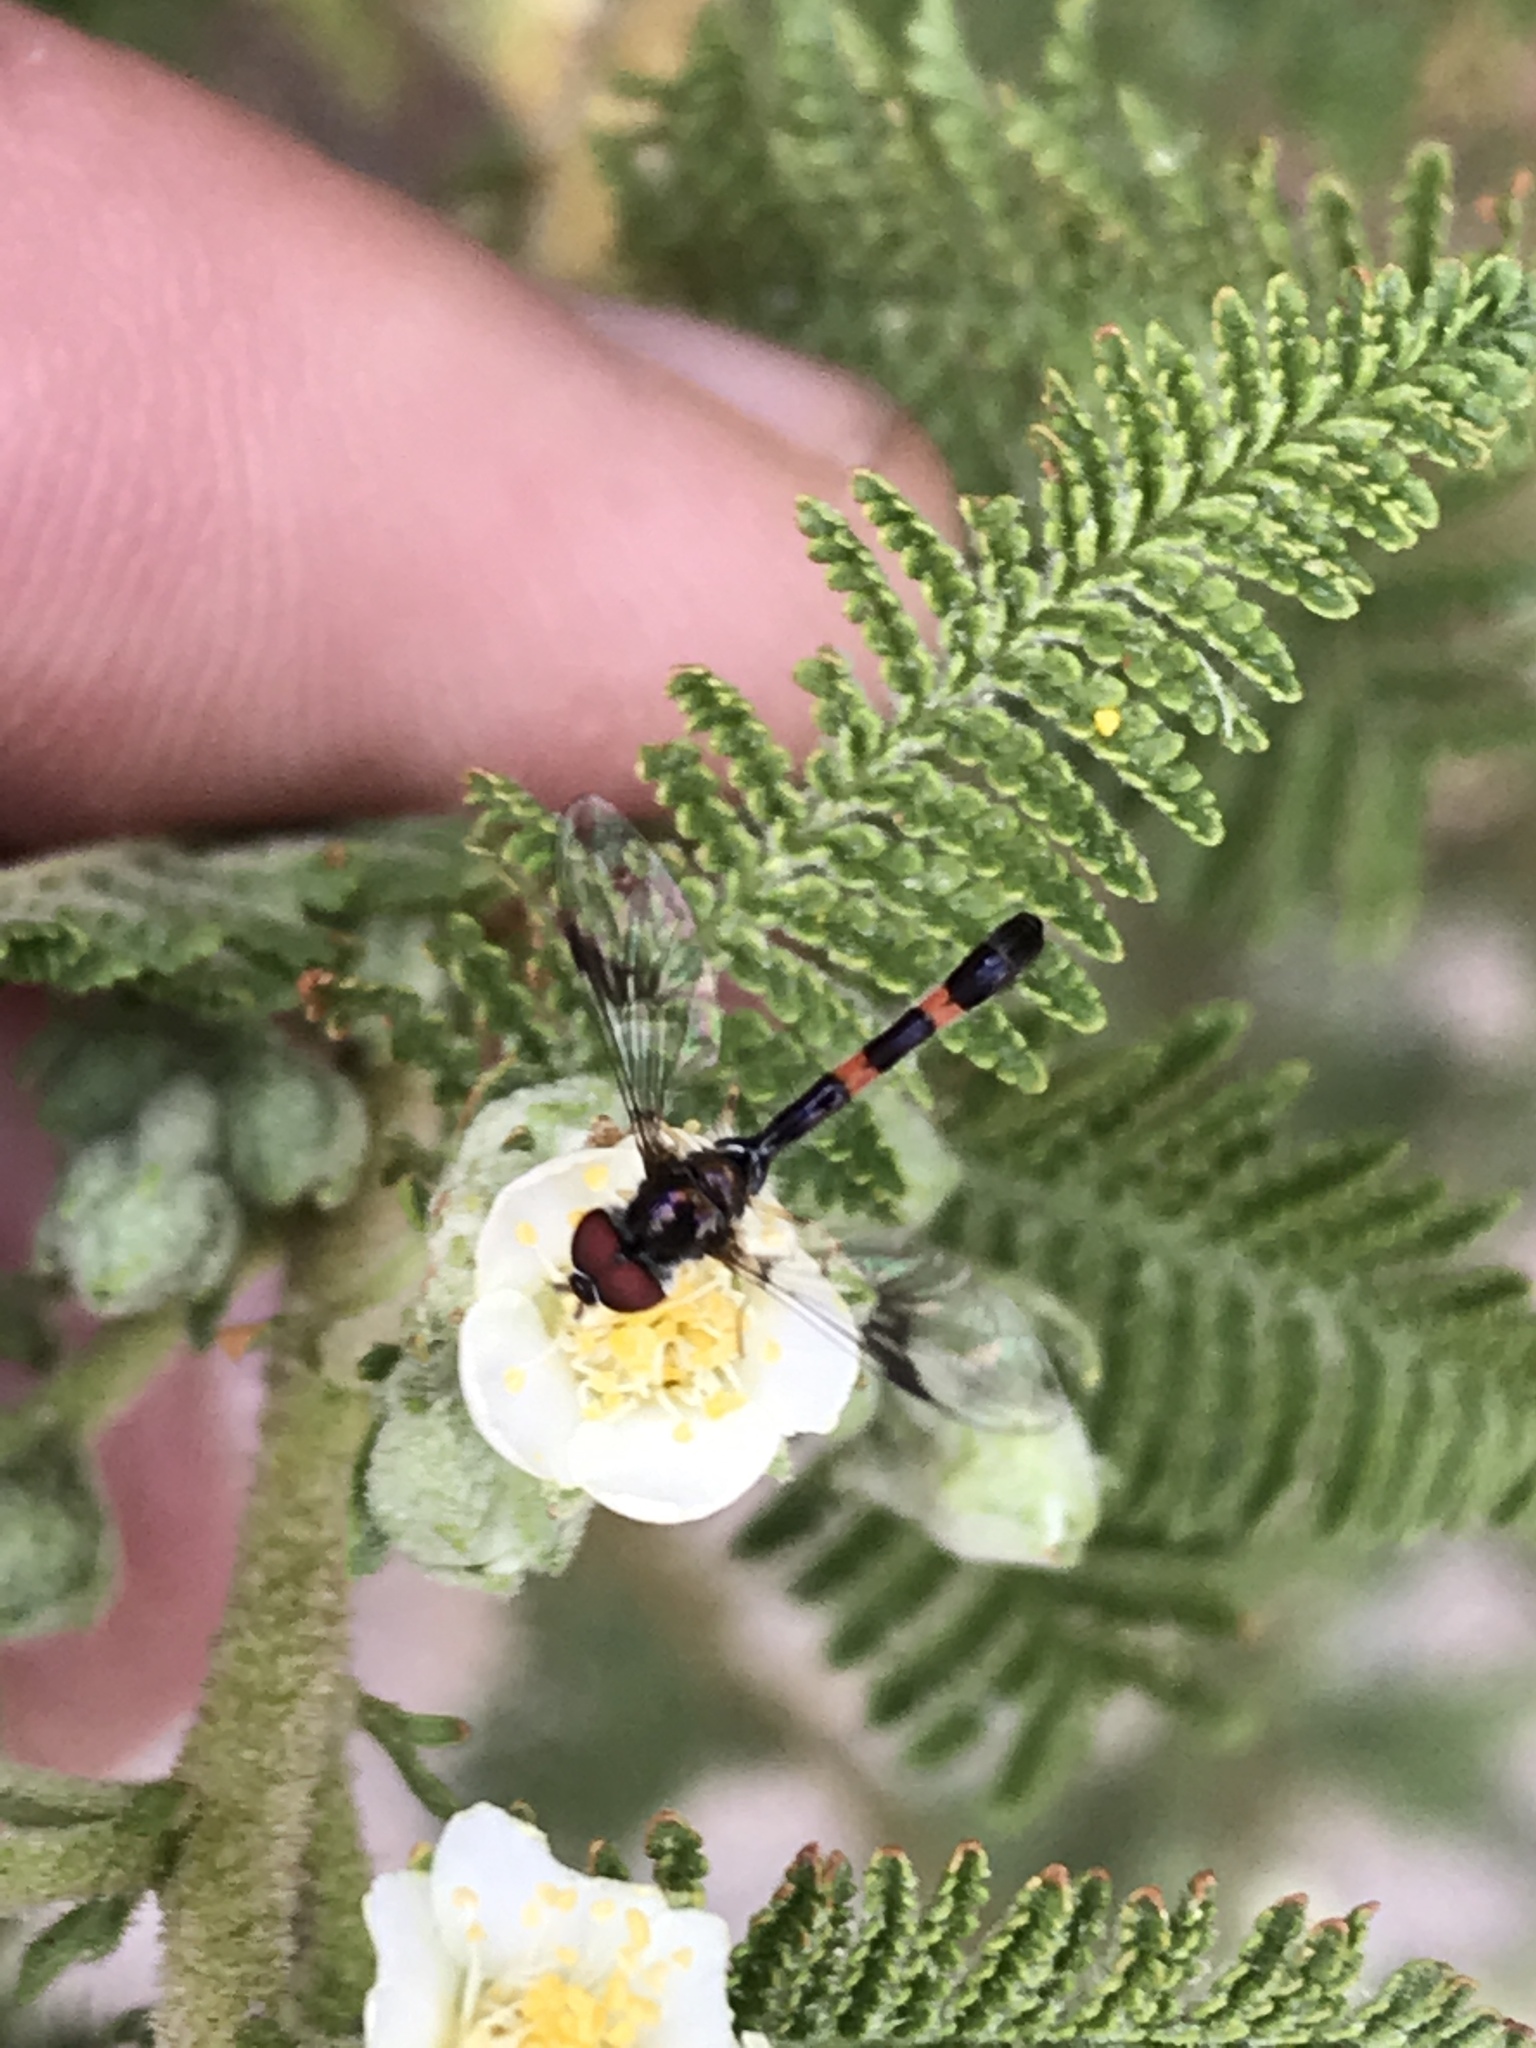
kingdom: Animalia
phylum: Arthropoda
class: Insecta
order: Diptera
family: Syrphidae
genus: Hypocritanus
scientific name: Hypocritanus lemur
